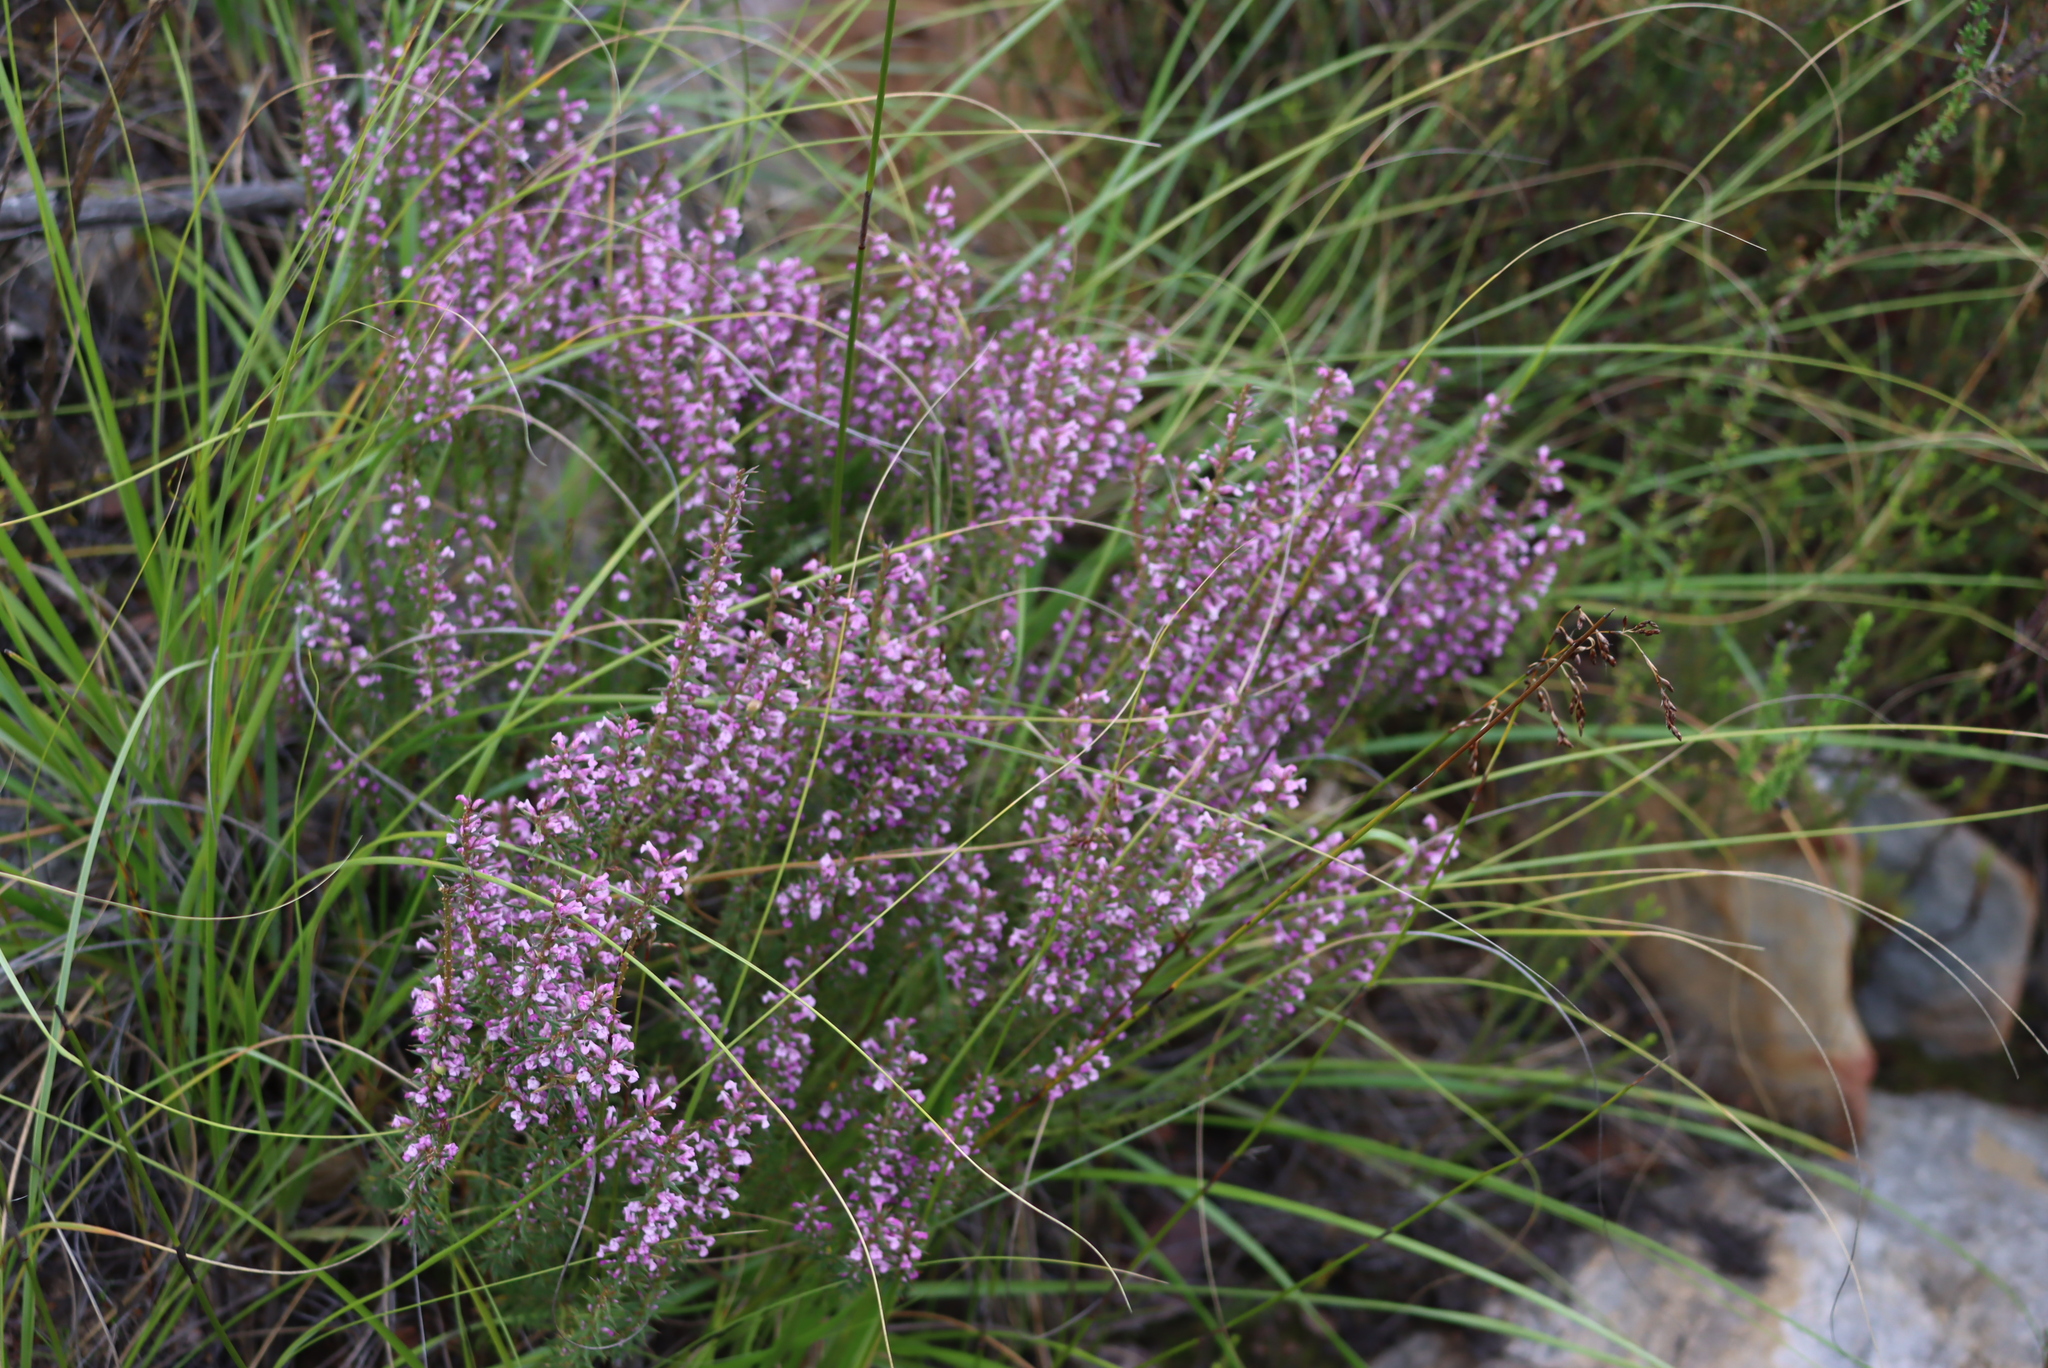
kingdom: Plantae
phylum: Tracheophyta
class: Magnoliopsida
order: Fabales
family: Polygalaceae
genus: Muraltia
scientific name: Muraltia juniperifolia
